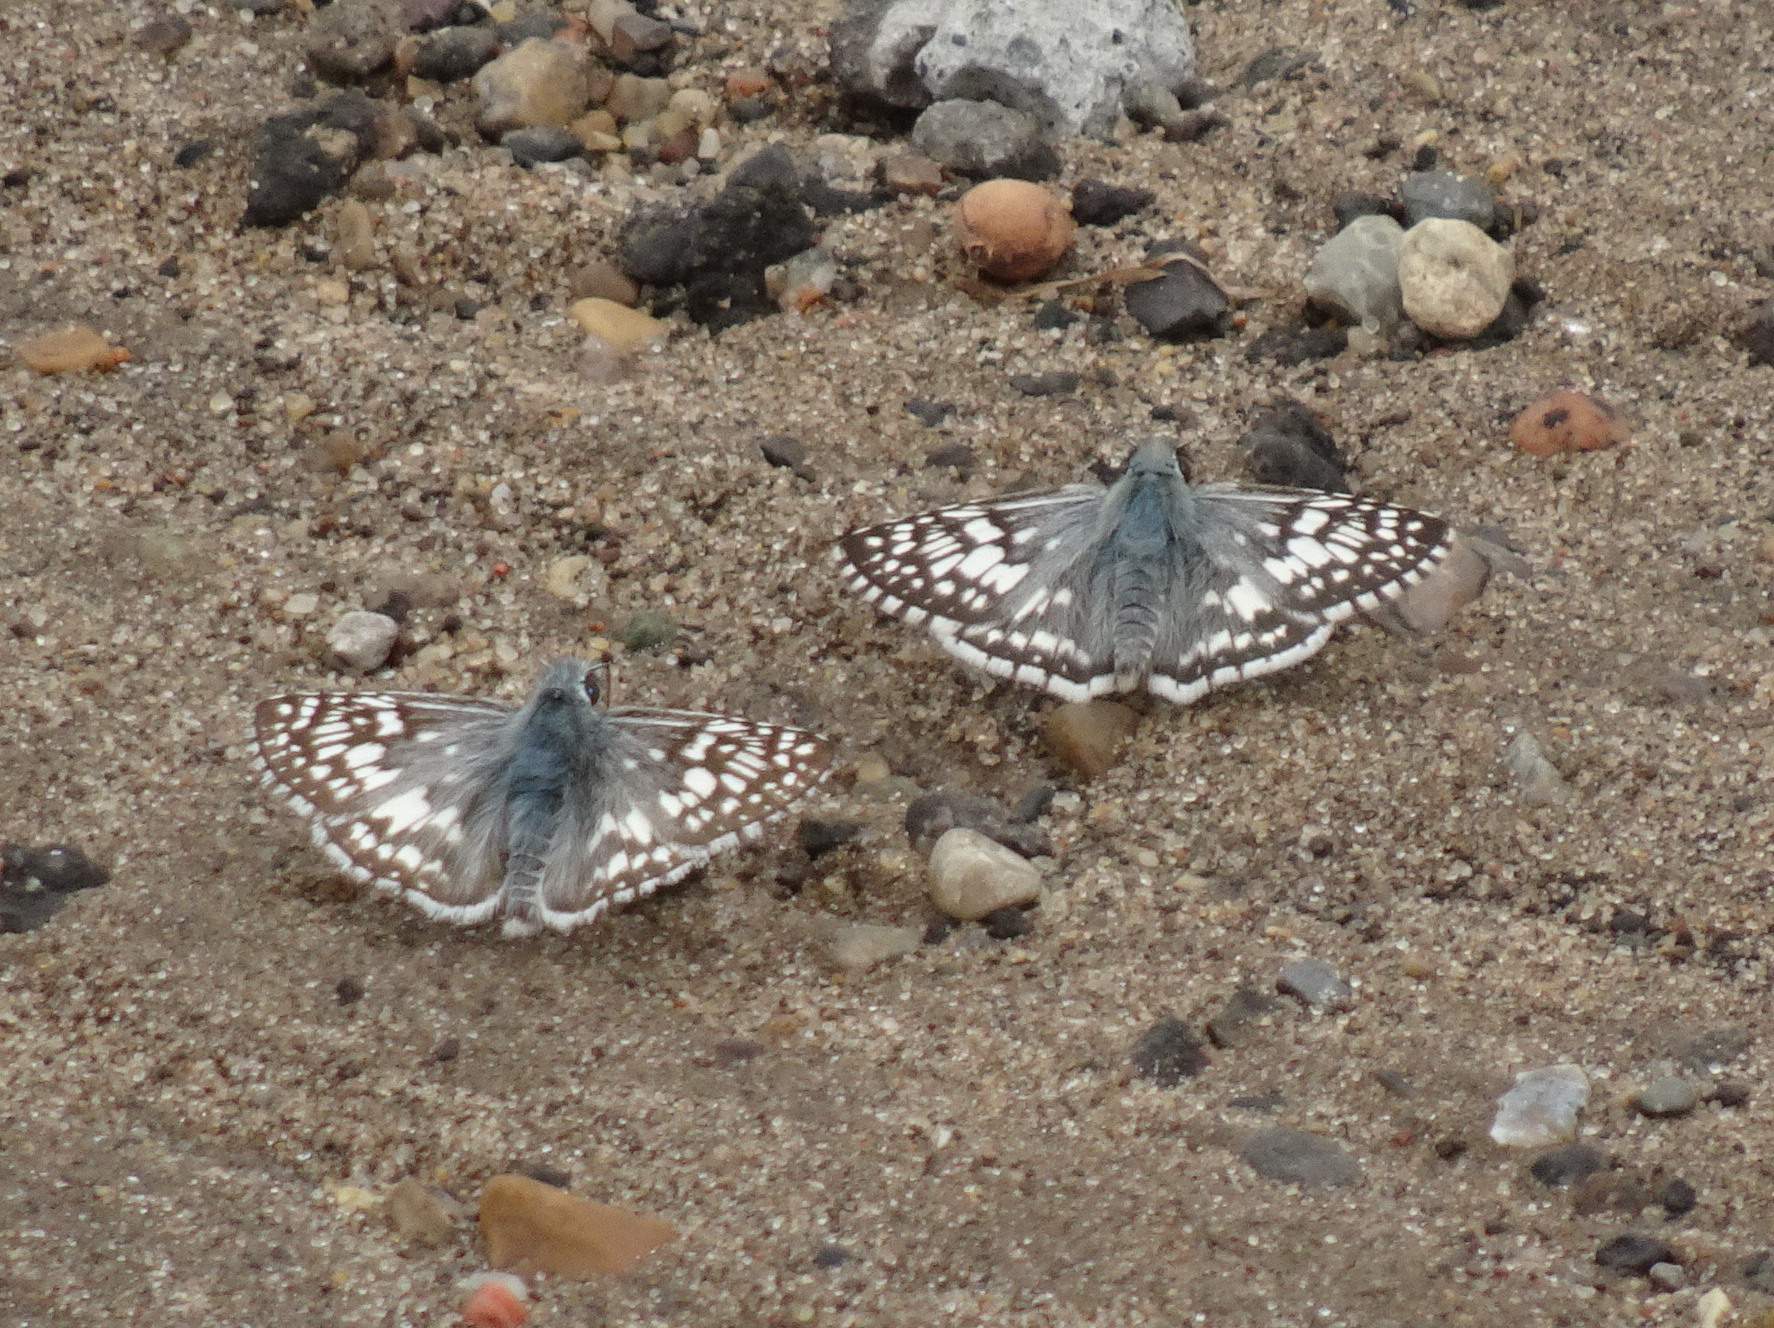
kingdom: Animalia
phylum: Arthropoda
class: Insecta
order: Lepidoptera
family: Hesperiidae
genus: Burnsius
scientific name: Burnsius communis
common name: Common checkered-skipper
